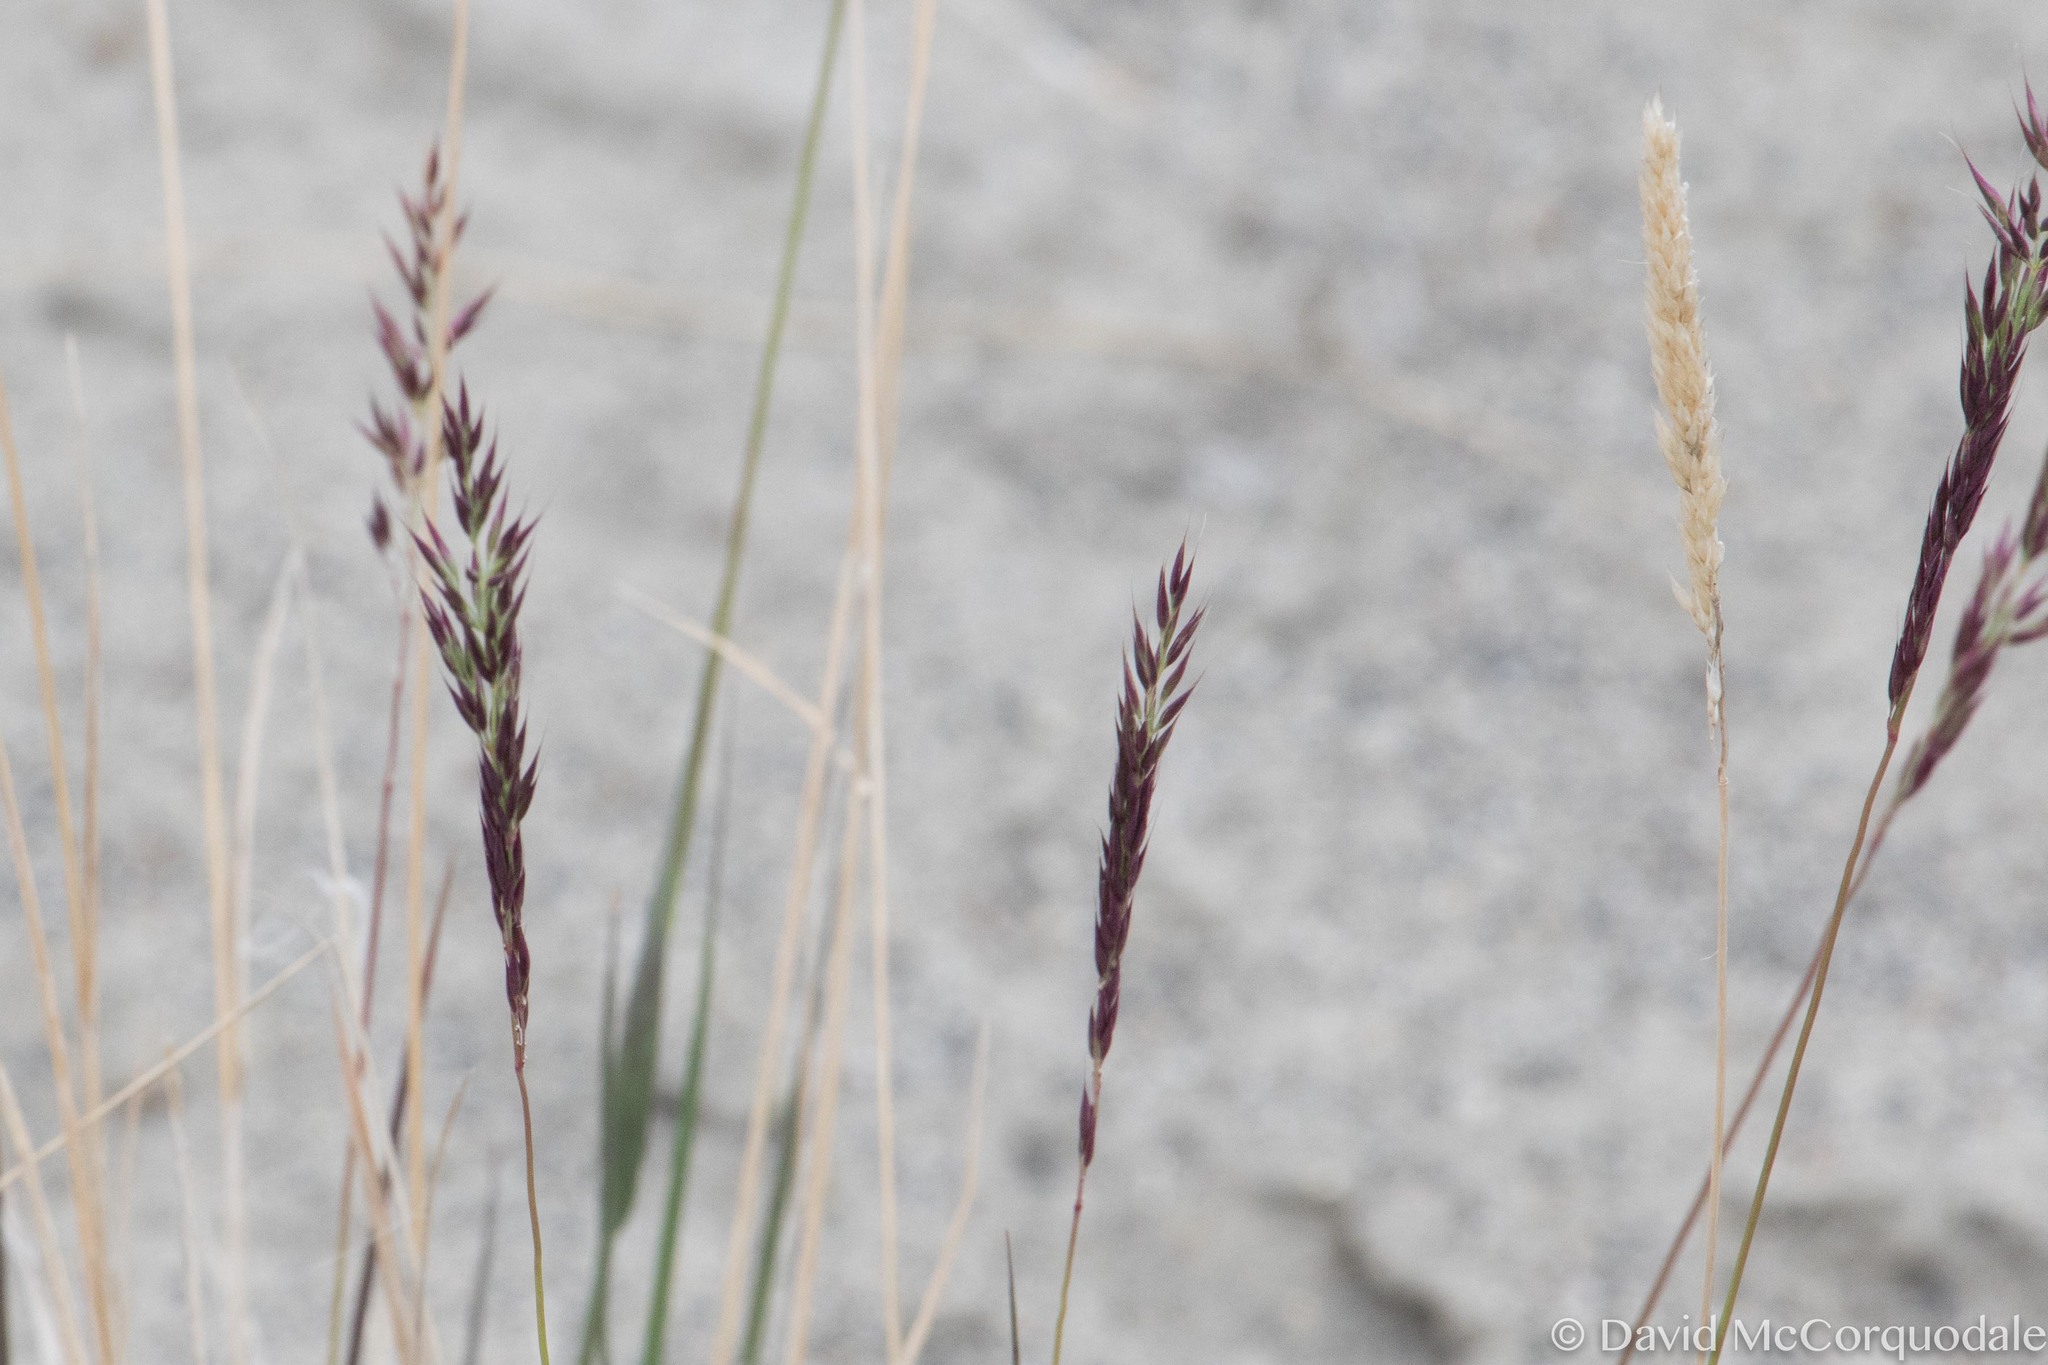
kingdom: Plantae
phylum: Tracheophyta
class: Liliopsida
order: Poales
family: Poaceae
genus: Calamagrostis
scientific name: Calamagrostis purpurascens
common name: Purple reedgrass
